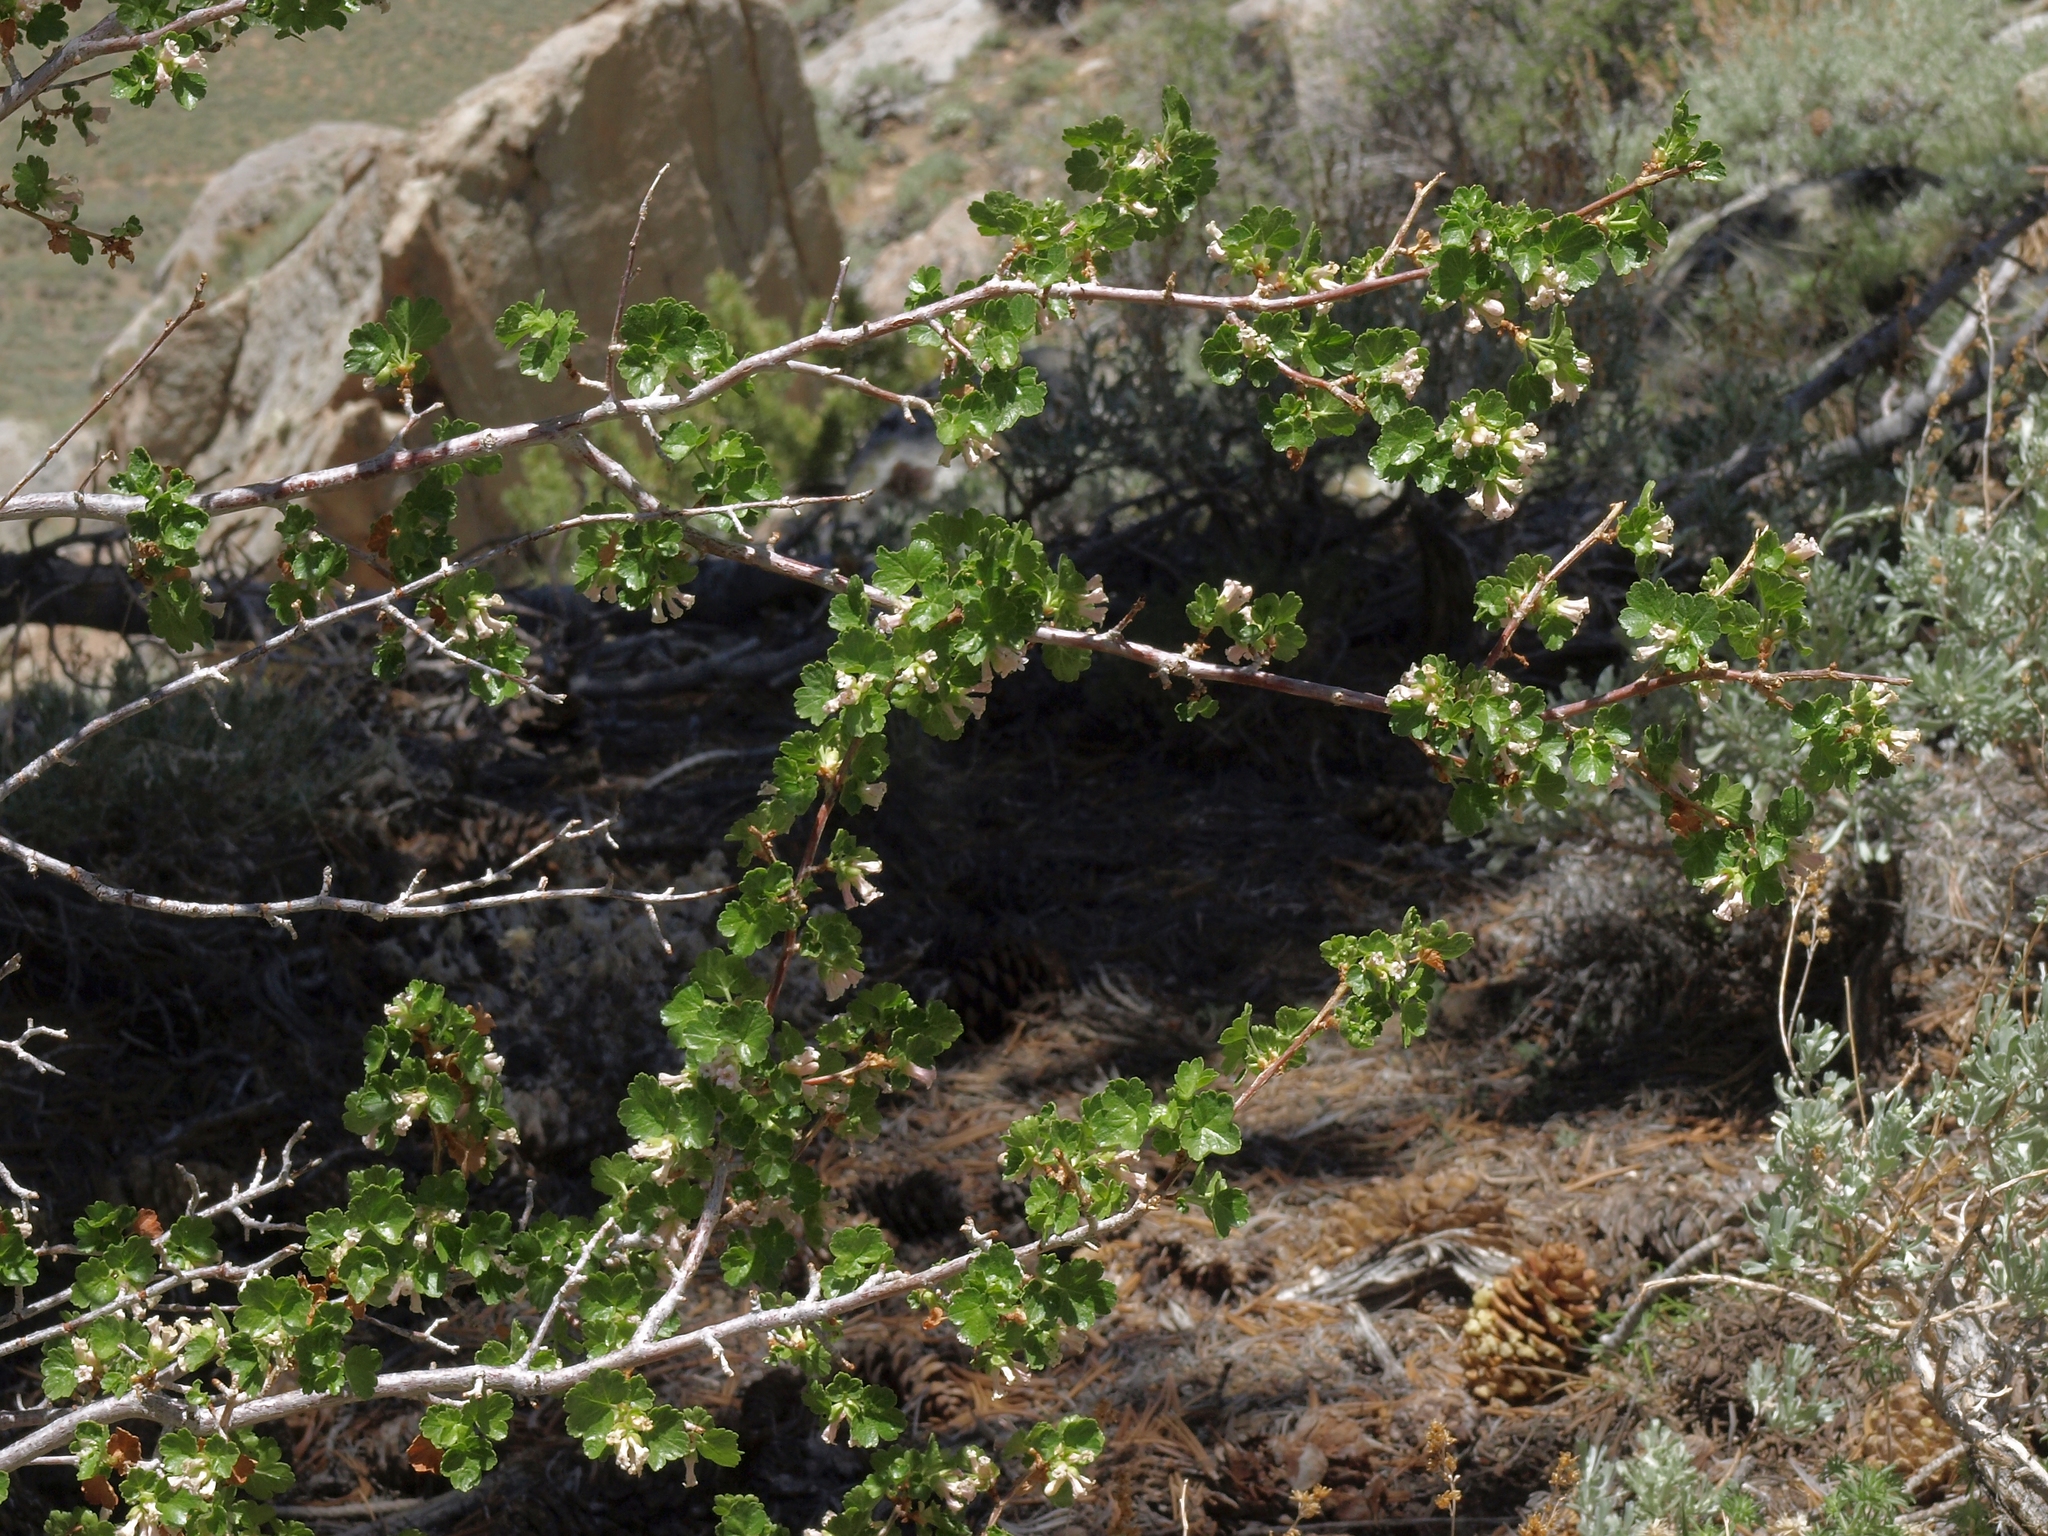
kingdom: Plantae
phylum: Tracheophyta
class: Magnoliopsida
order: Saxifragales
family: Grossulariaceae
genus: Ribes
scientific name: Ribes cereum
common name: Wax currant
